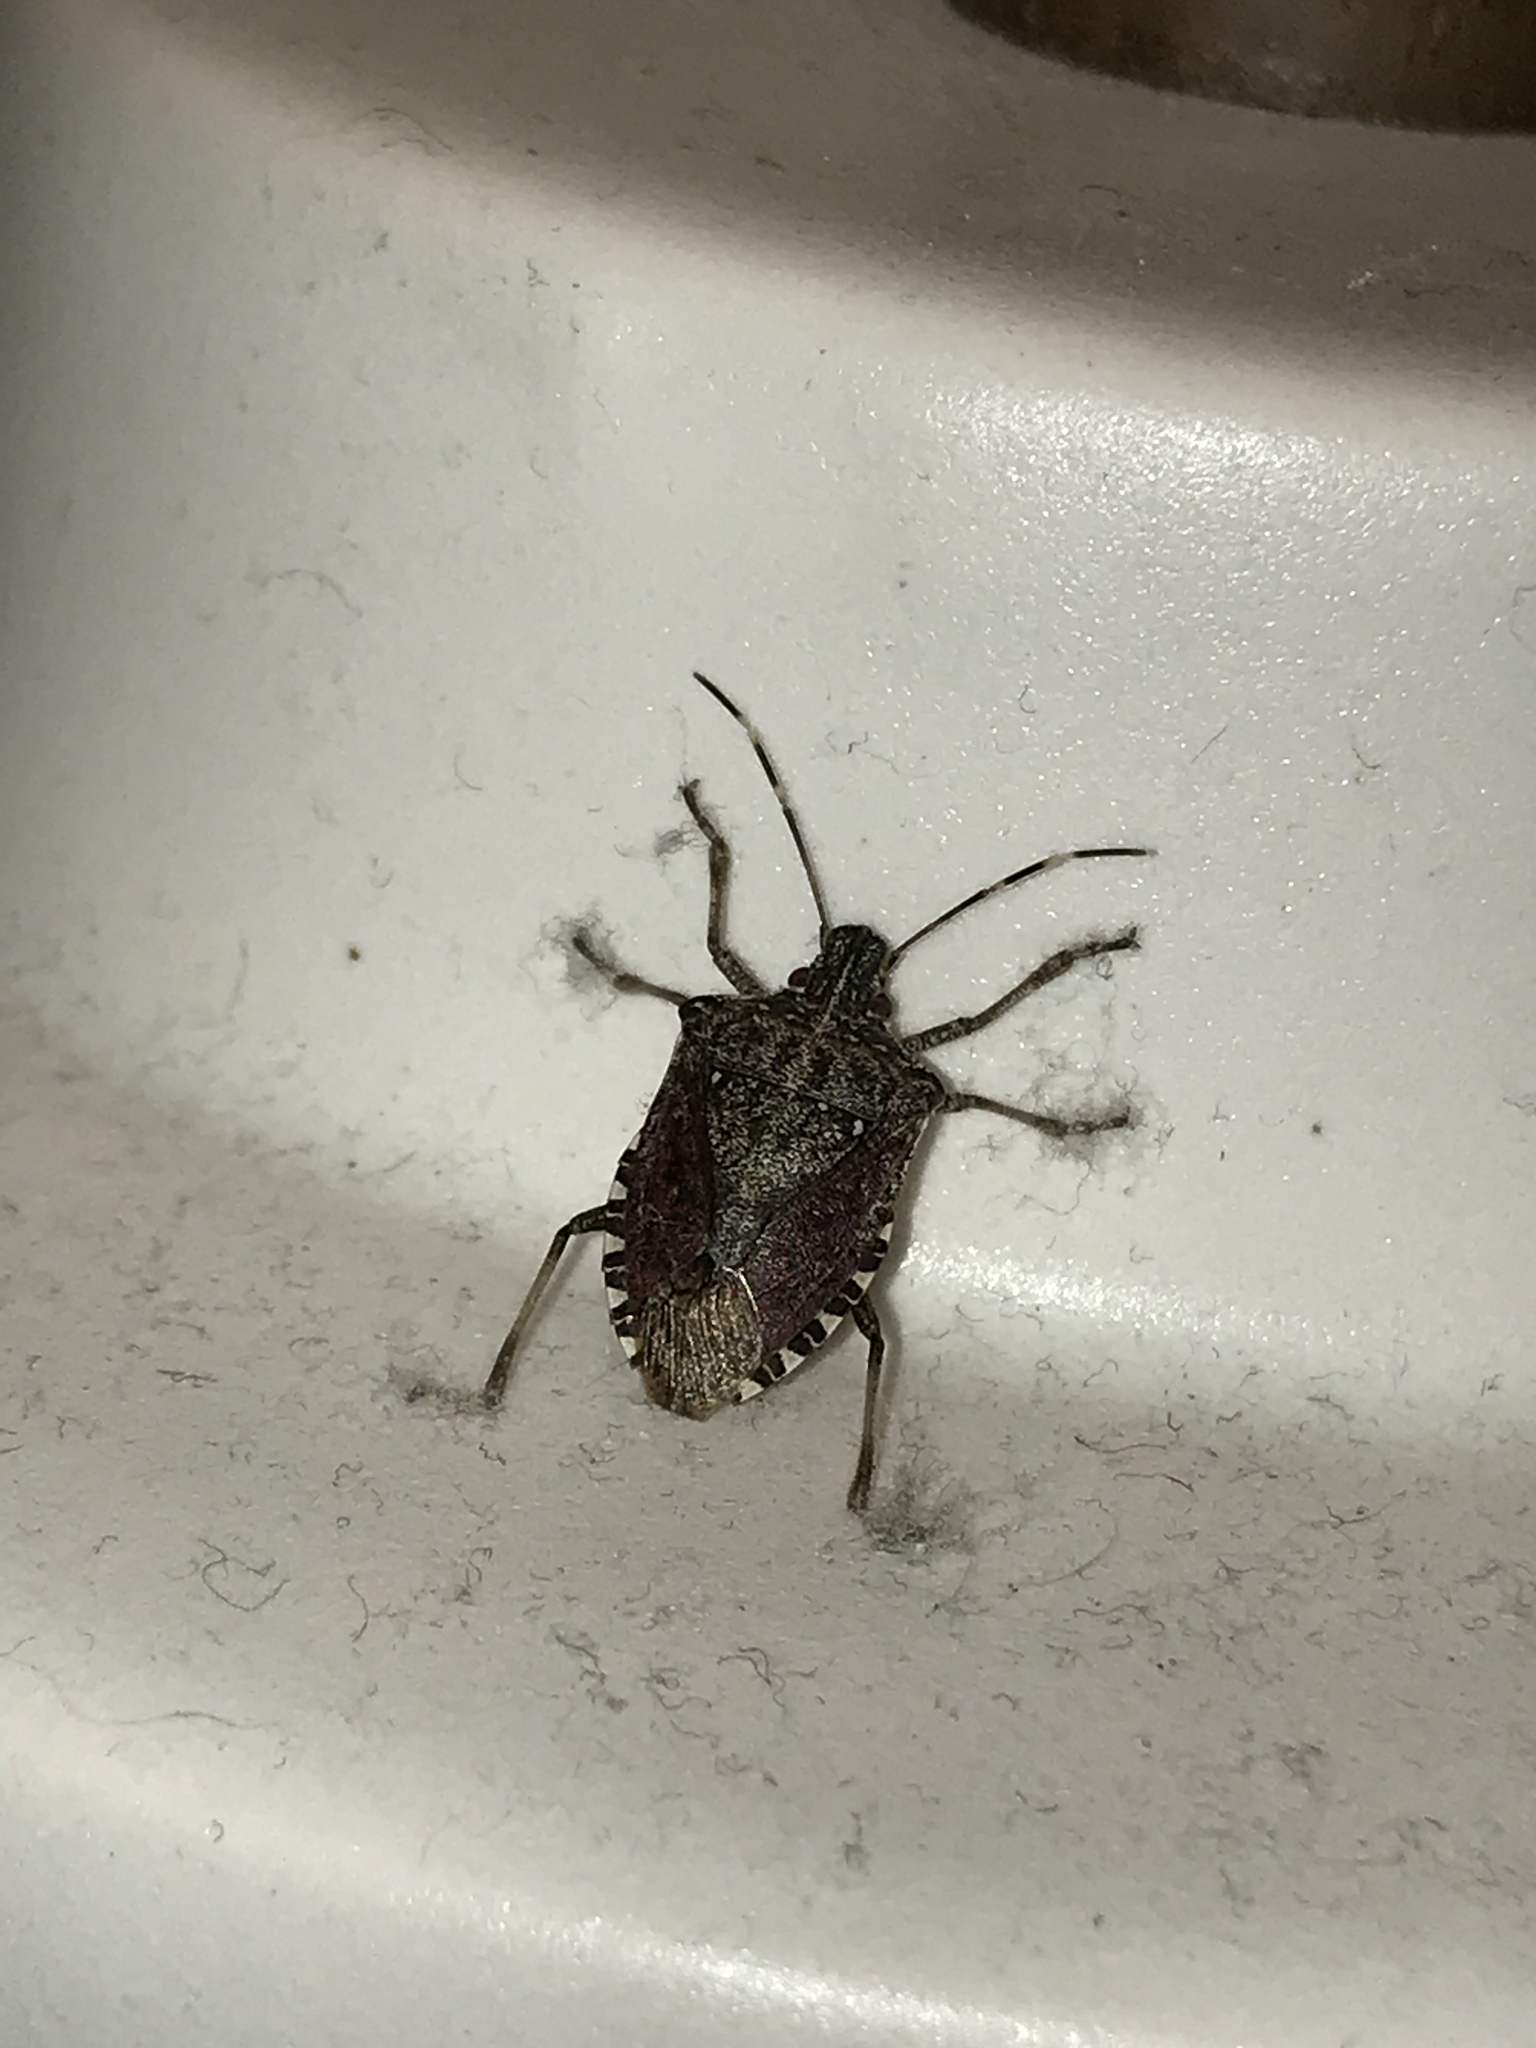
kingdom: Animalia
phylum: Arthropoda
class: Insecta
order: Hemiptera
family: Pentatomidae
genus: Halyomorpha
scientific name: Halyomorpha halys
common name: Brown marmorated stink bug
